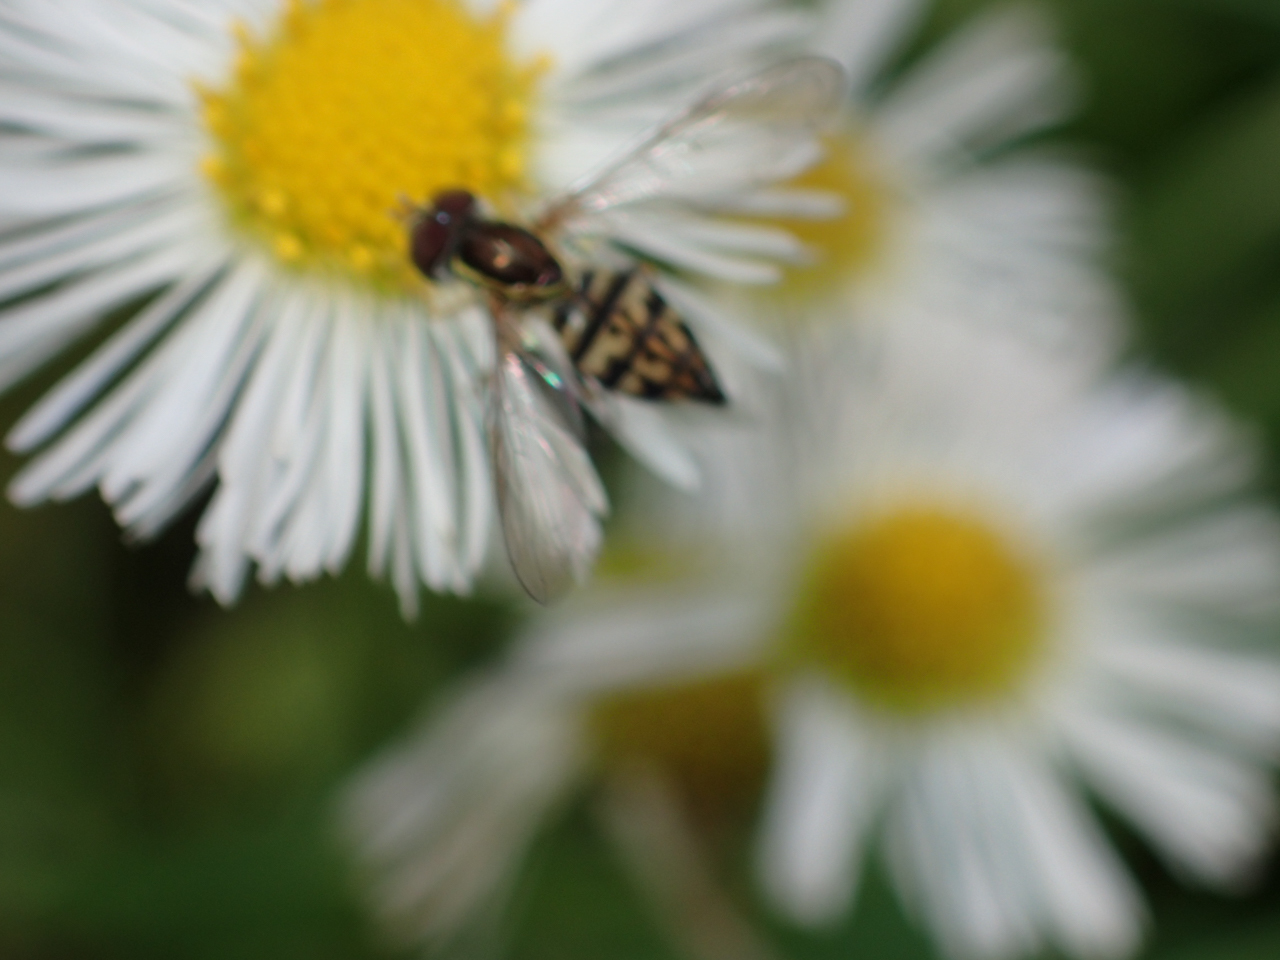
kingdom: Animalia
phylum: Arthropoda
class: Insecta
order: Diptera
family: Syrphidae
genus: Toxomerus
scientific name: Toxomerus geminatus
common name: Eastern calligrapher
